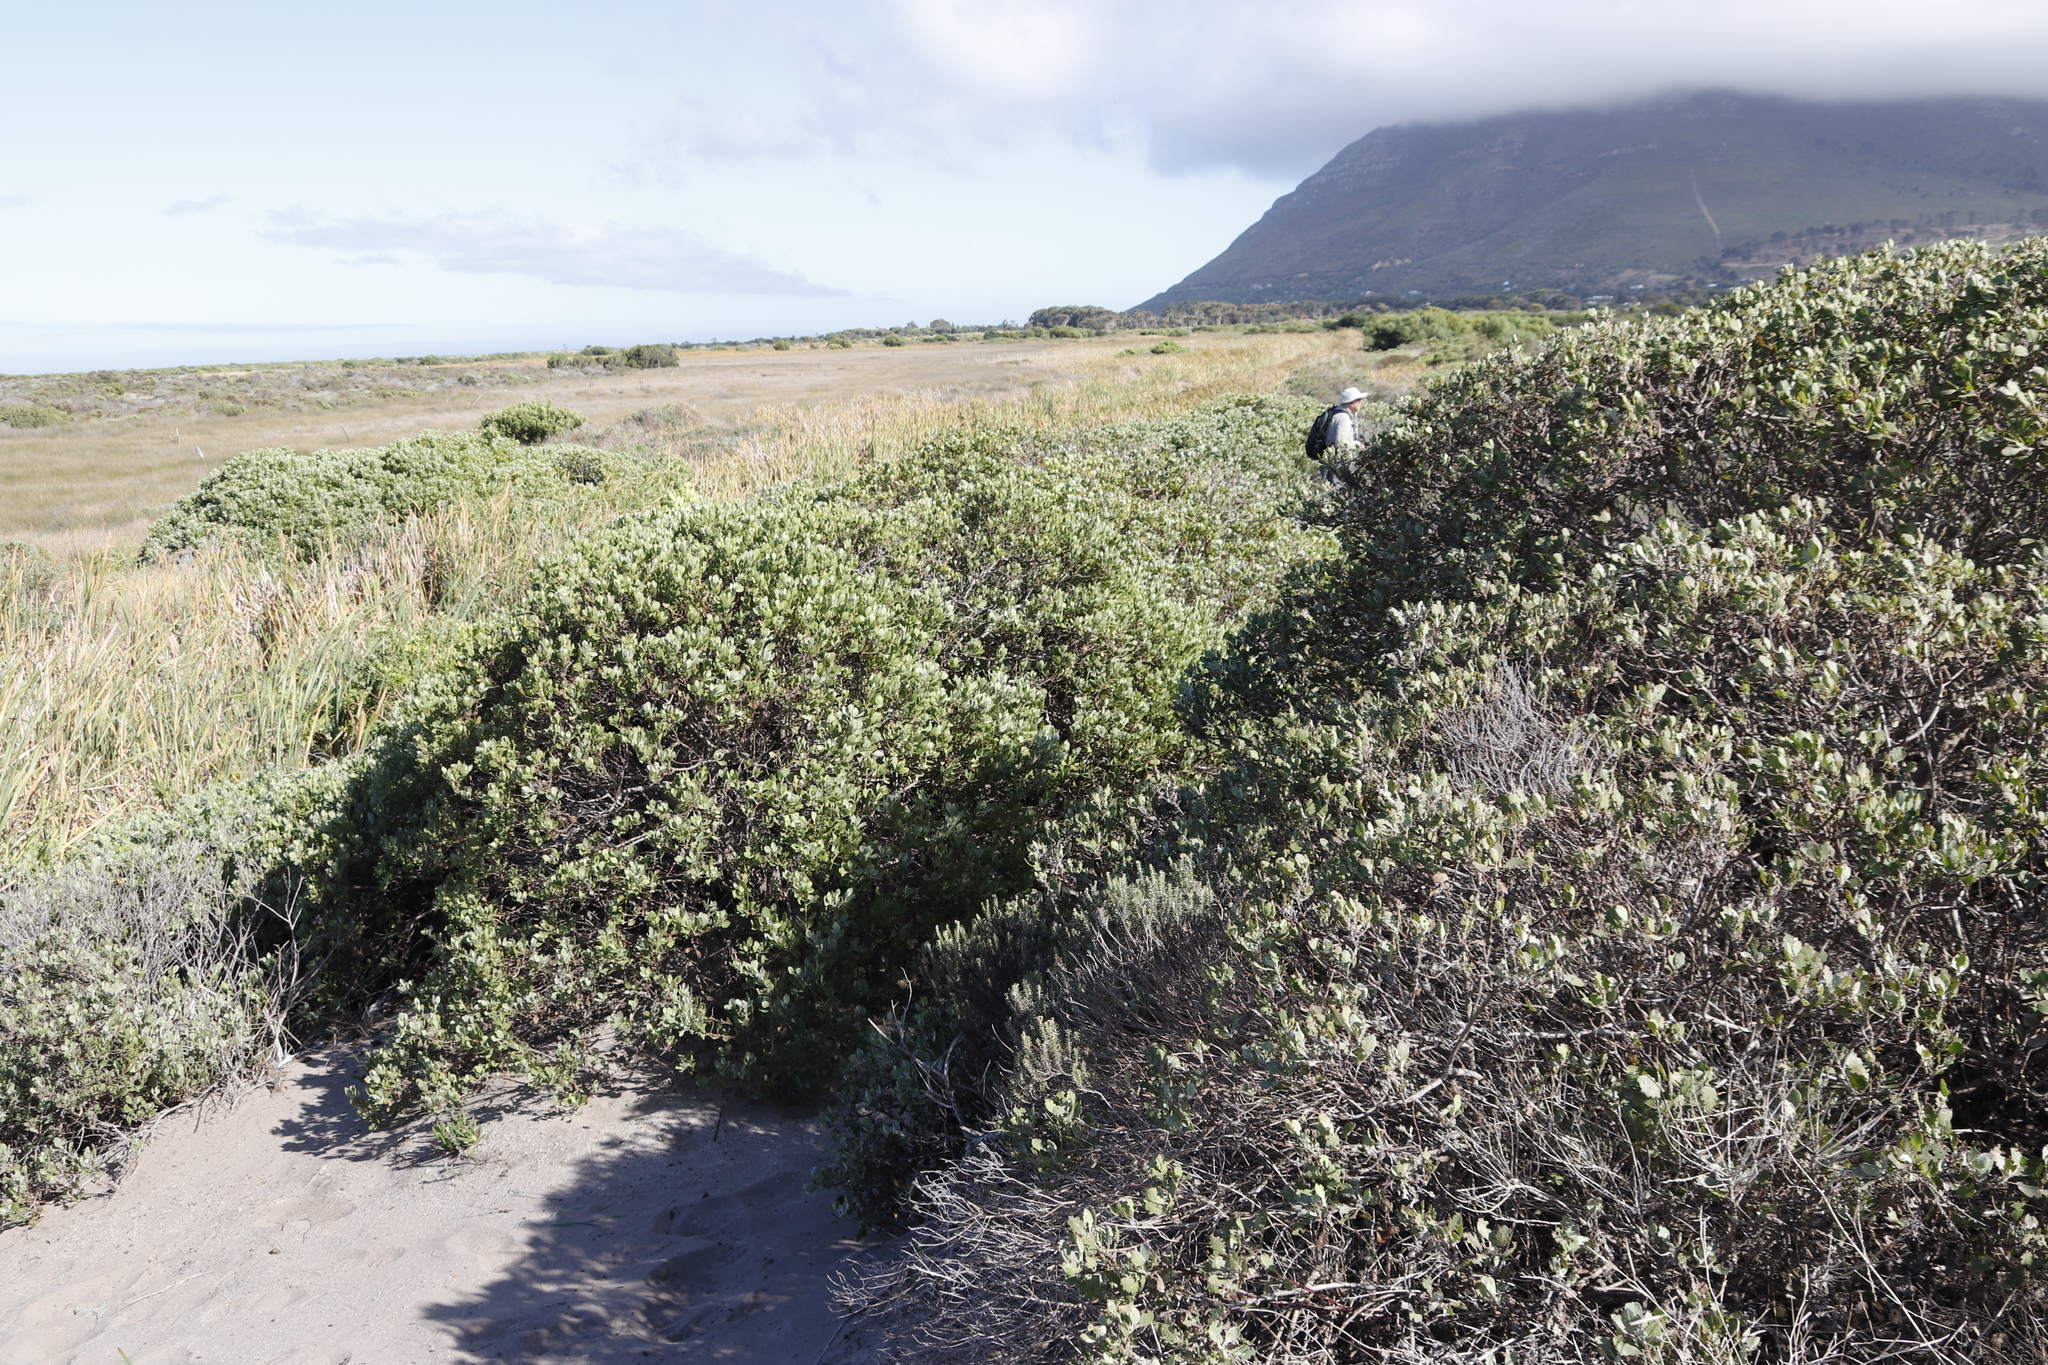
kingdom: Plantae
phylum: Tracheophyta
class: Magnoliopsida
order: Asterales
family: Asteraceae
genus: Osteospermum
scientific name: Osteospermum moniliferum
